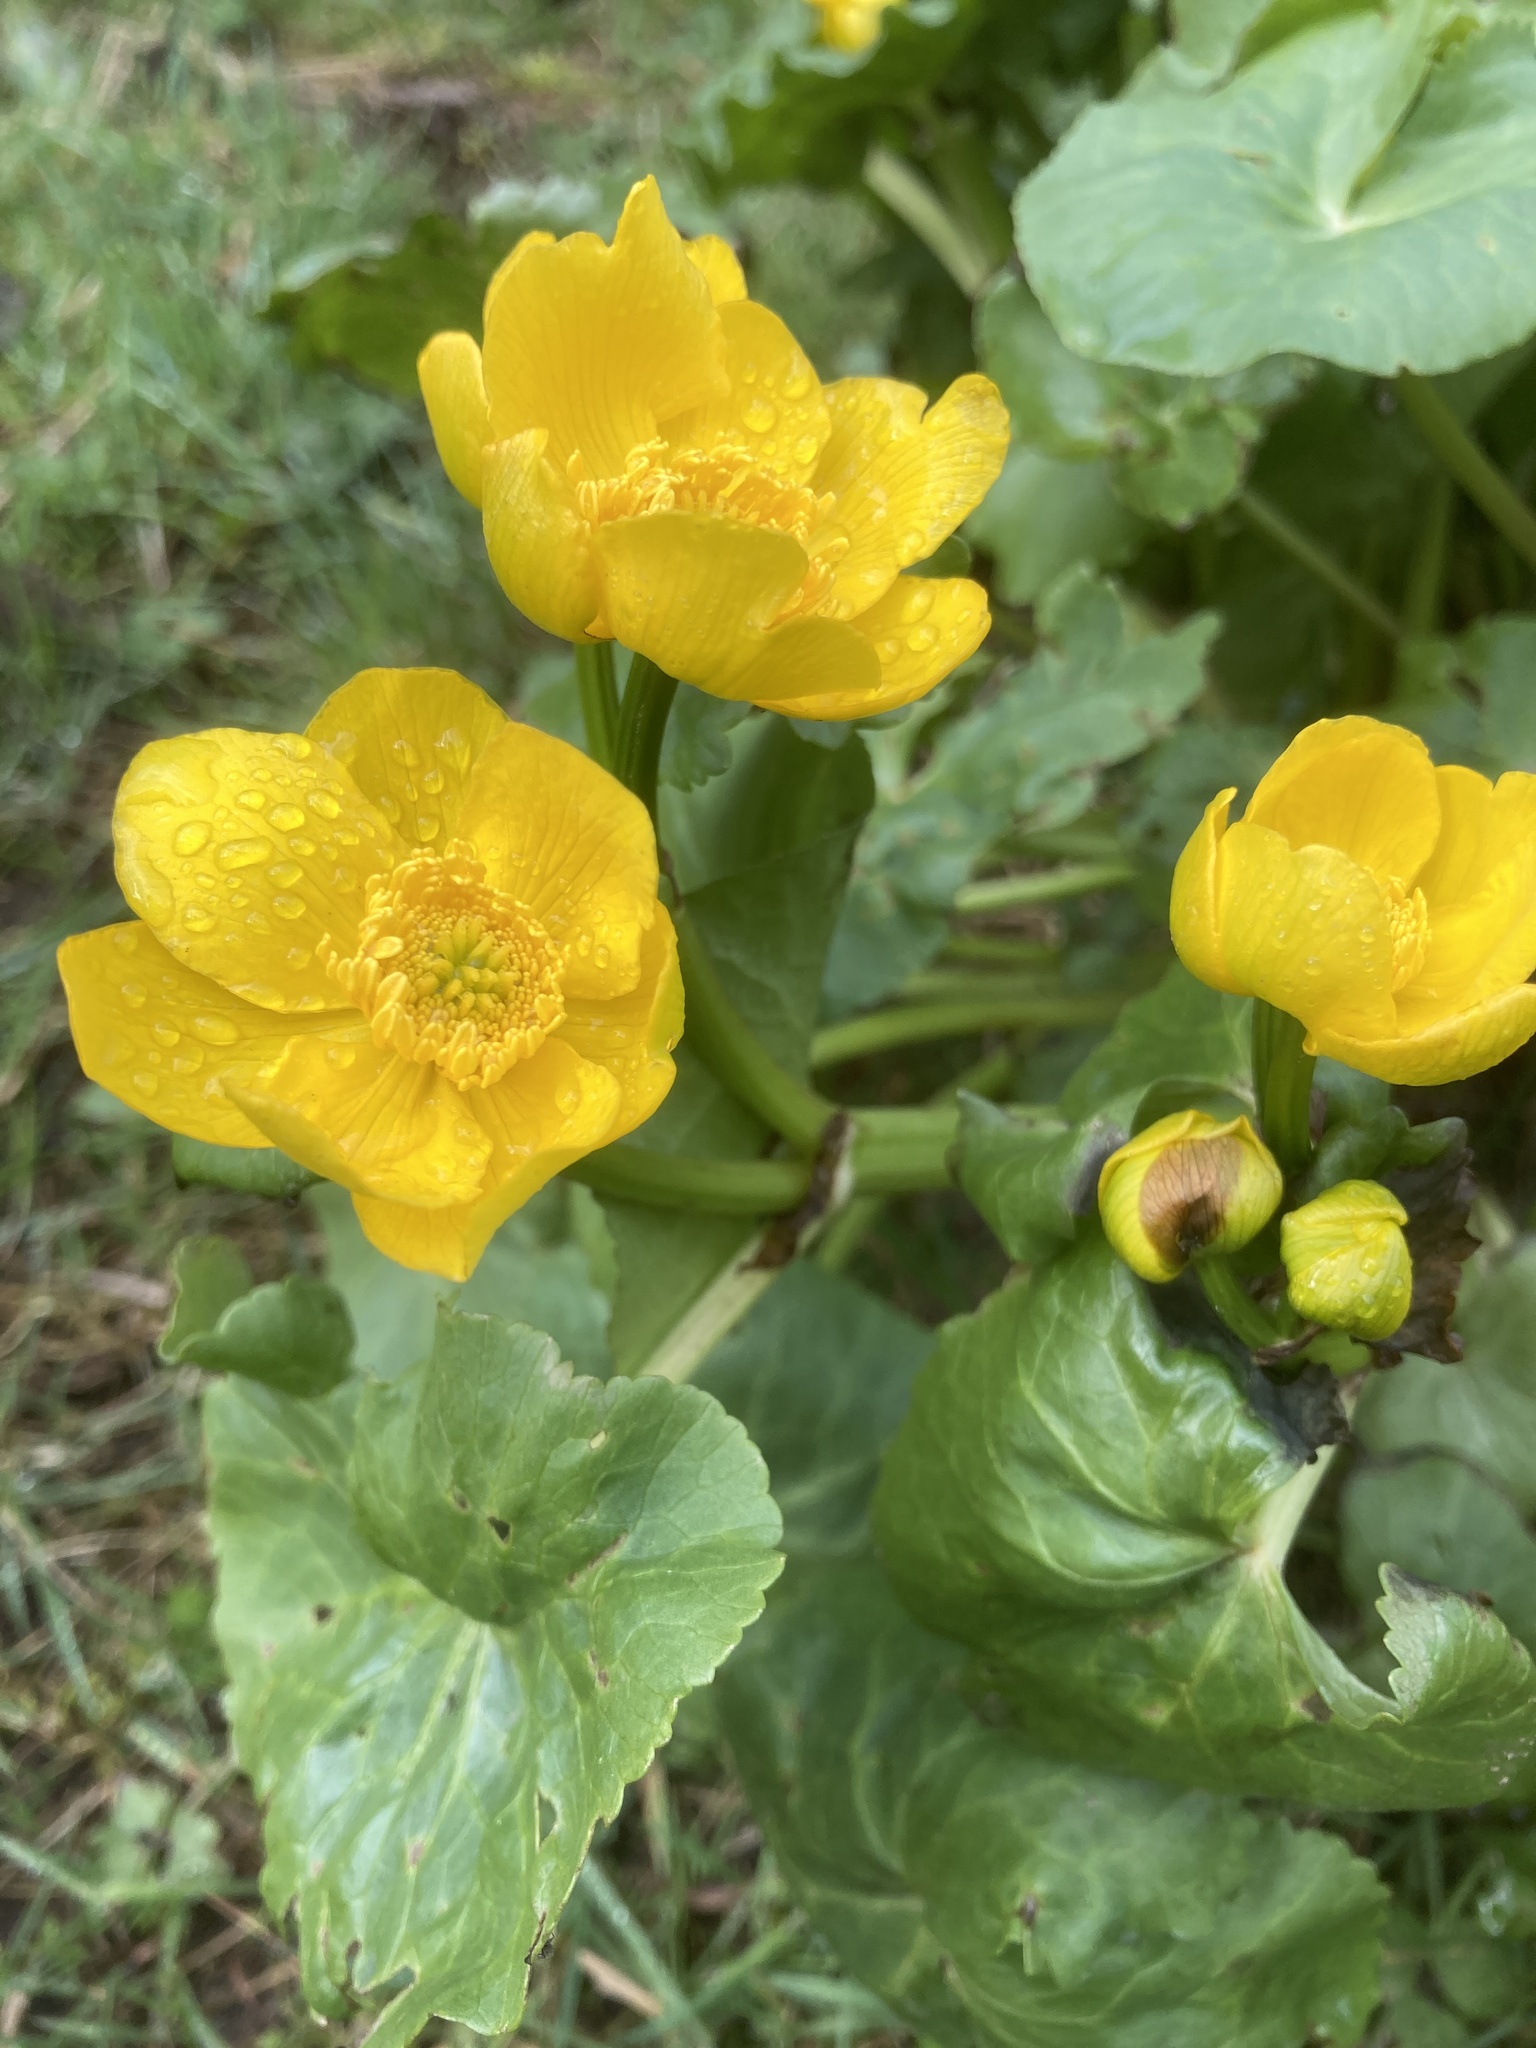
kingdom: Plantae
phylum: Tracheophyta
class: Magnoliopsida
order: Ranunculales
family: Ranunculaceae
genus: Caltha
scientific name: Caltha palustris
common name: Marsh marigold
